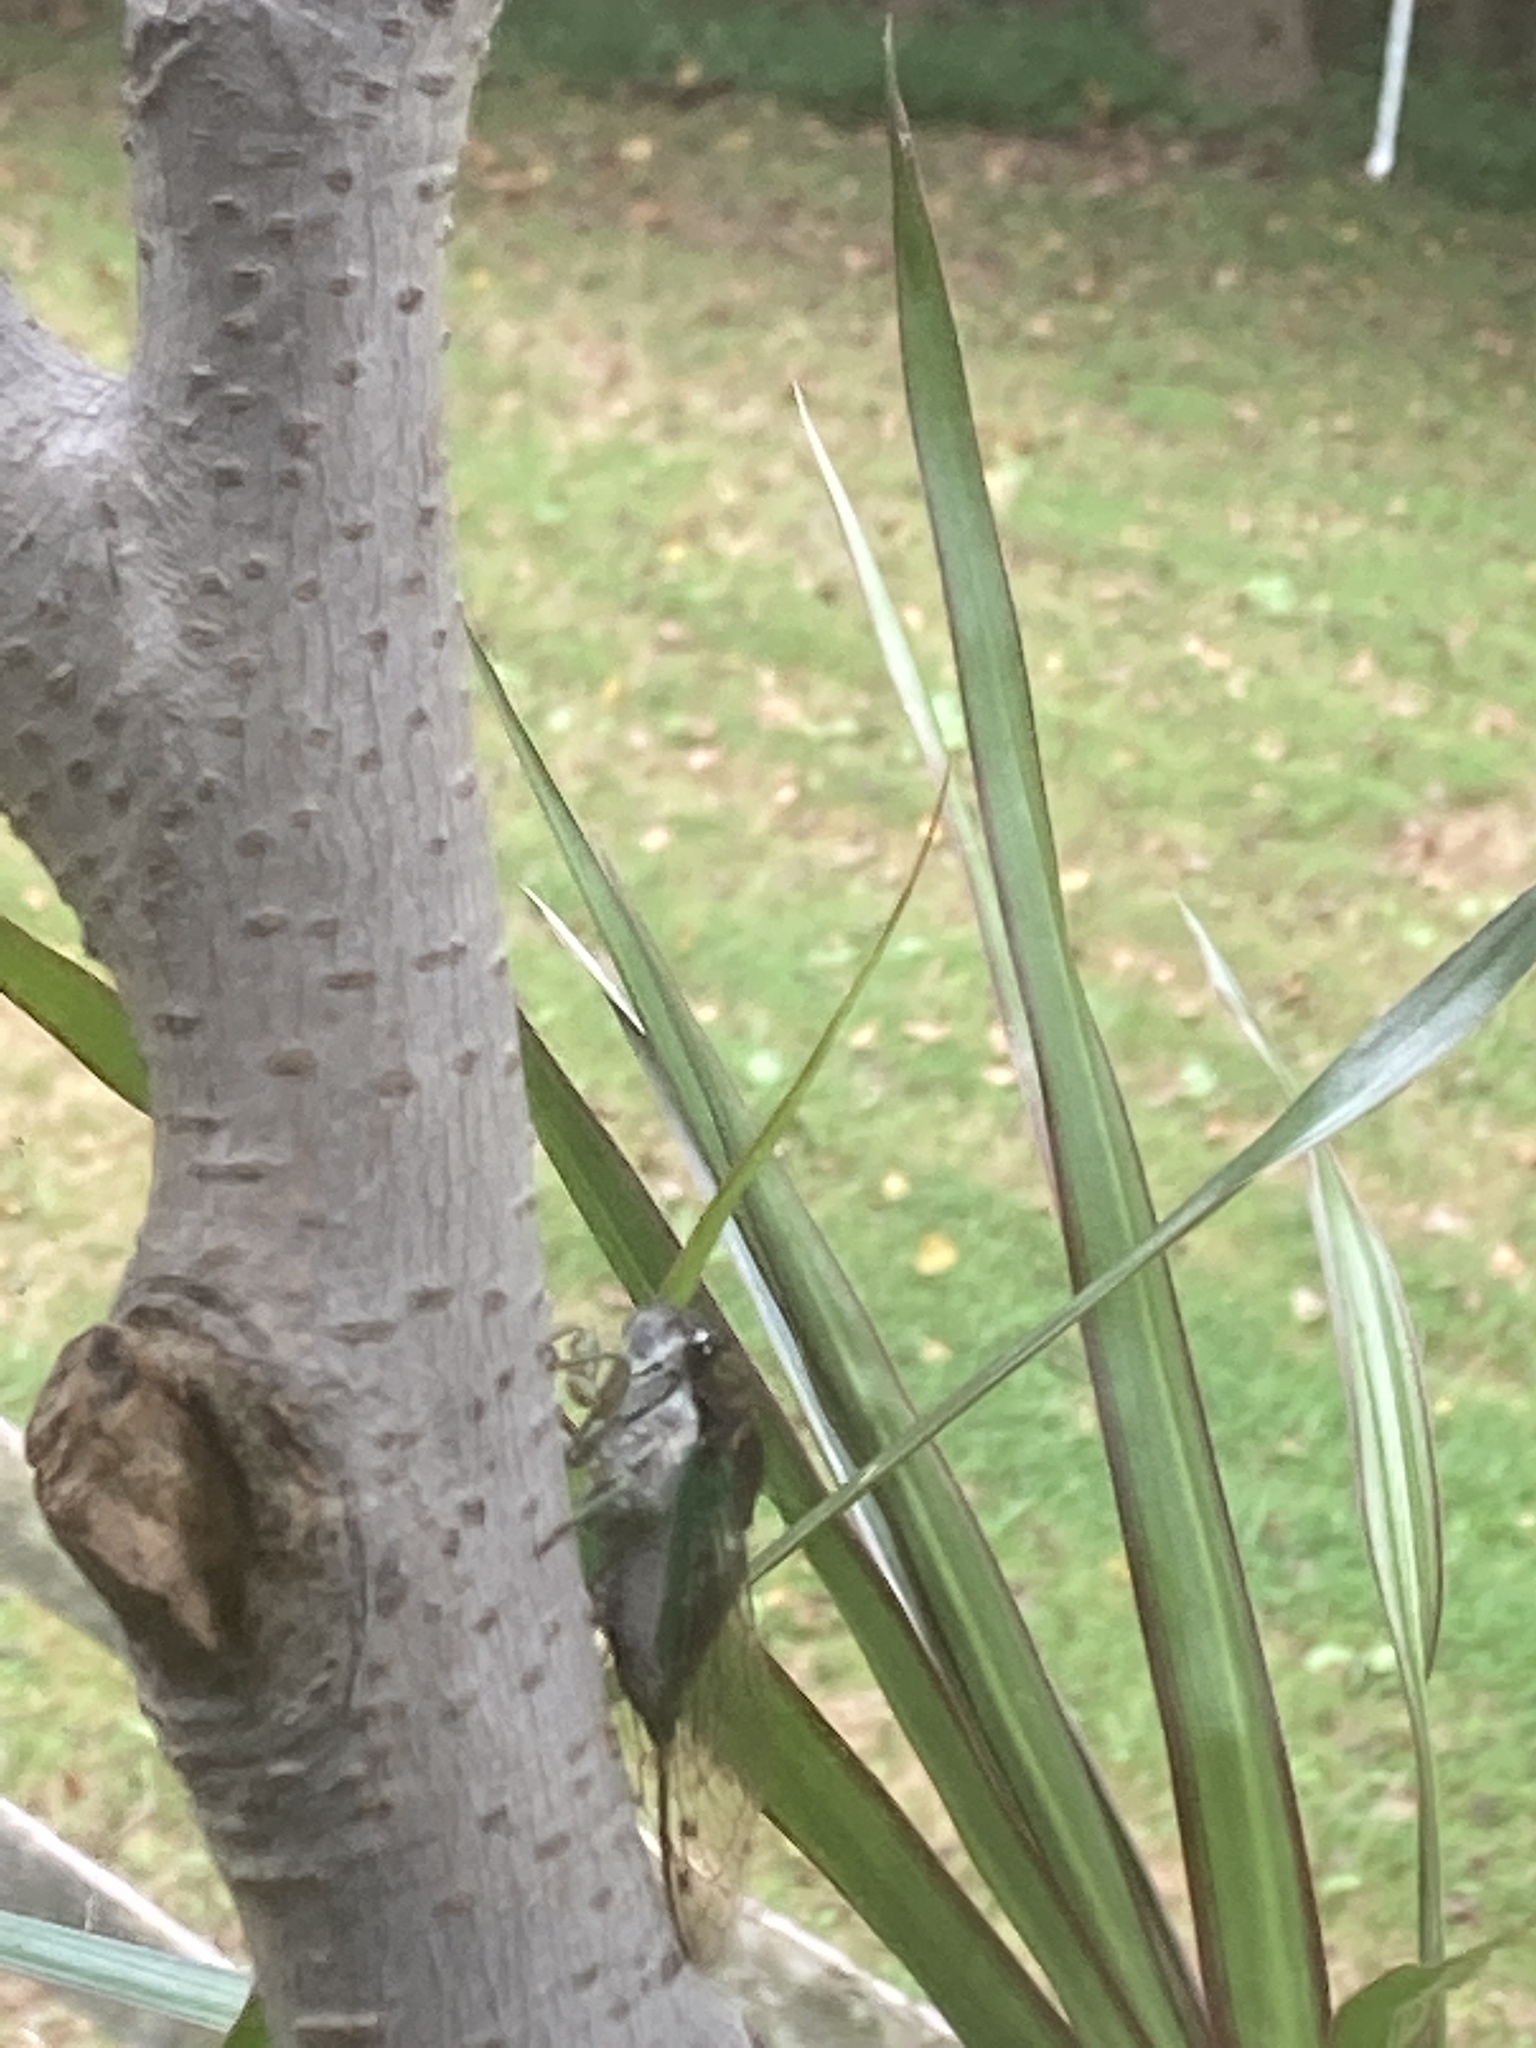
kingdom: Animalia
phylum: Arthropoda
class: Insecta
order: Hemiptera
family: Cicadidae
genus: Neotibicen
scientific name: Neotibicen tibicen
